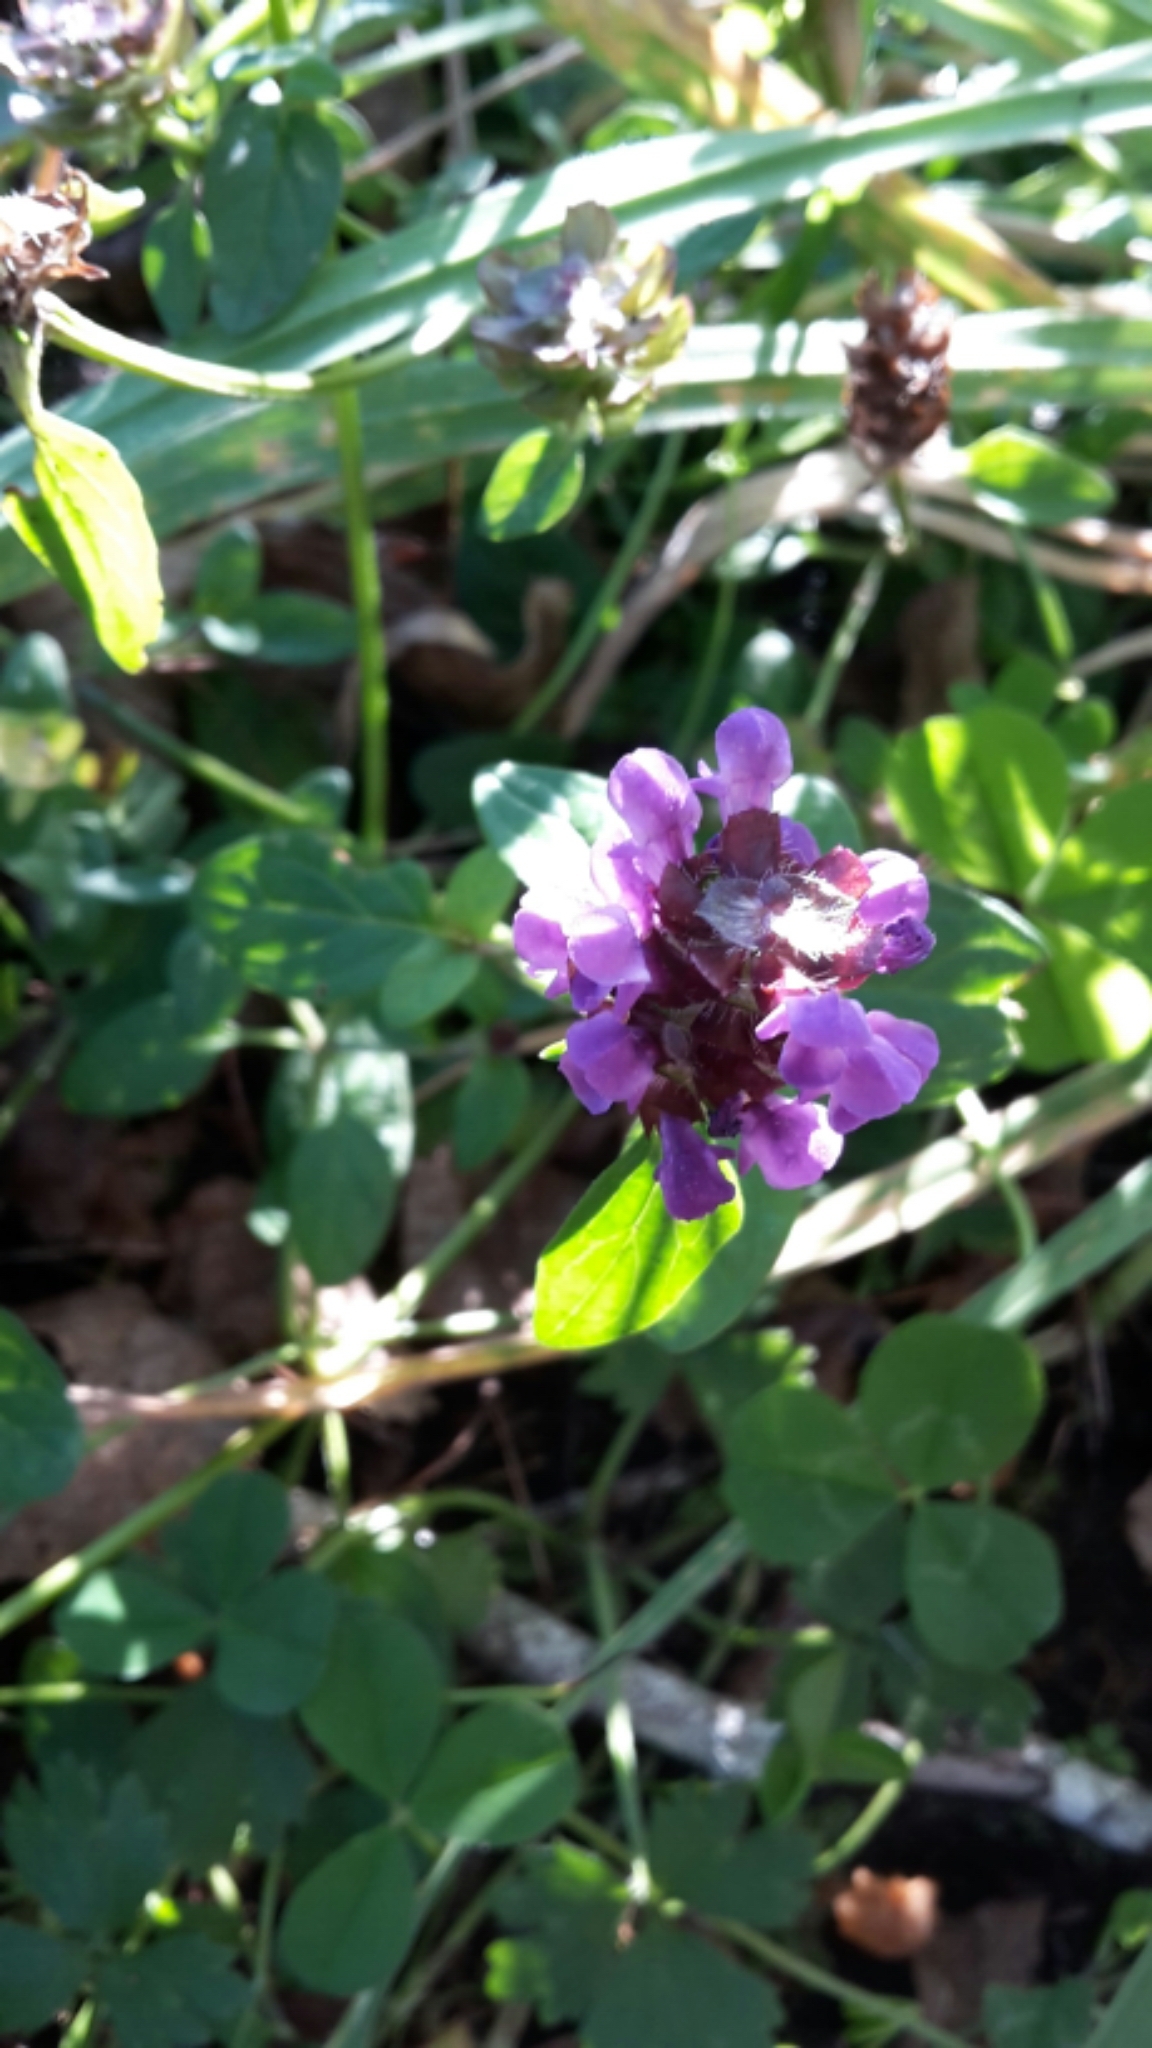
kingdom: Plantae
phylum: Tracheophyta
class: Magnoliopsida
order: Lamiales
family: Lamiaceae
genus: Prunella
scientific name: Prunella vulgaris
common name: Heal-all
